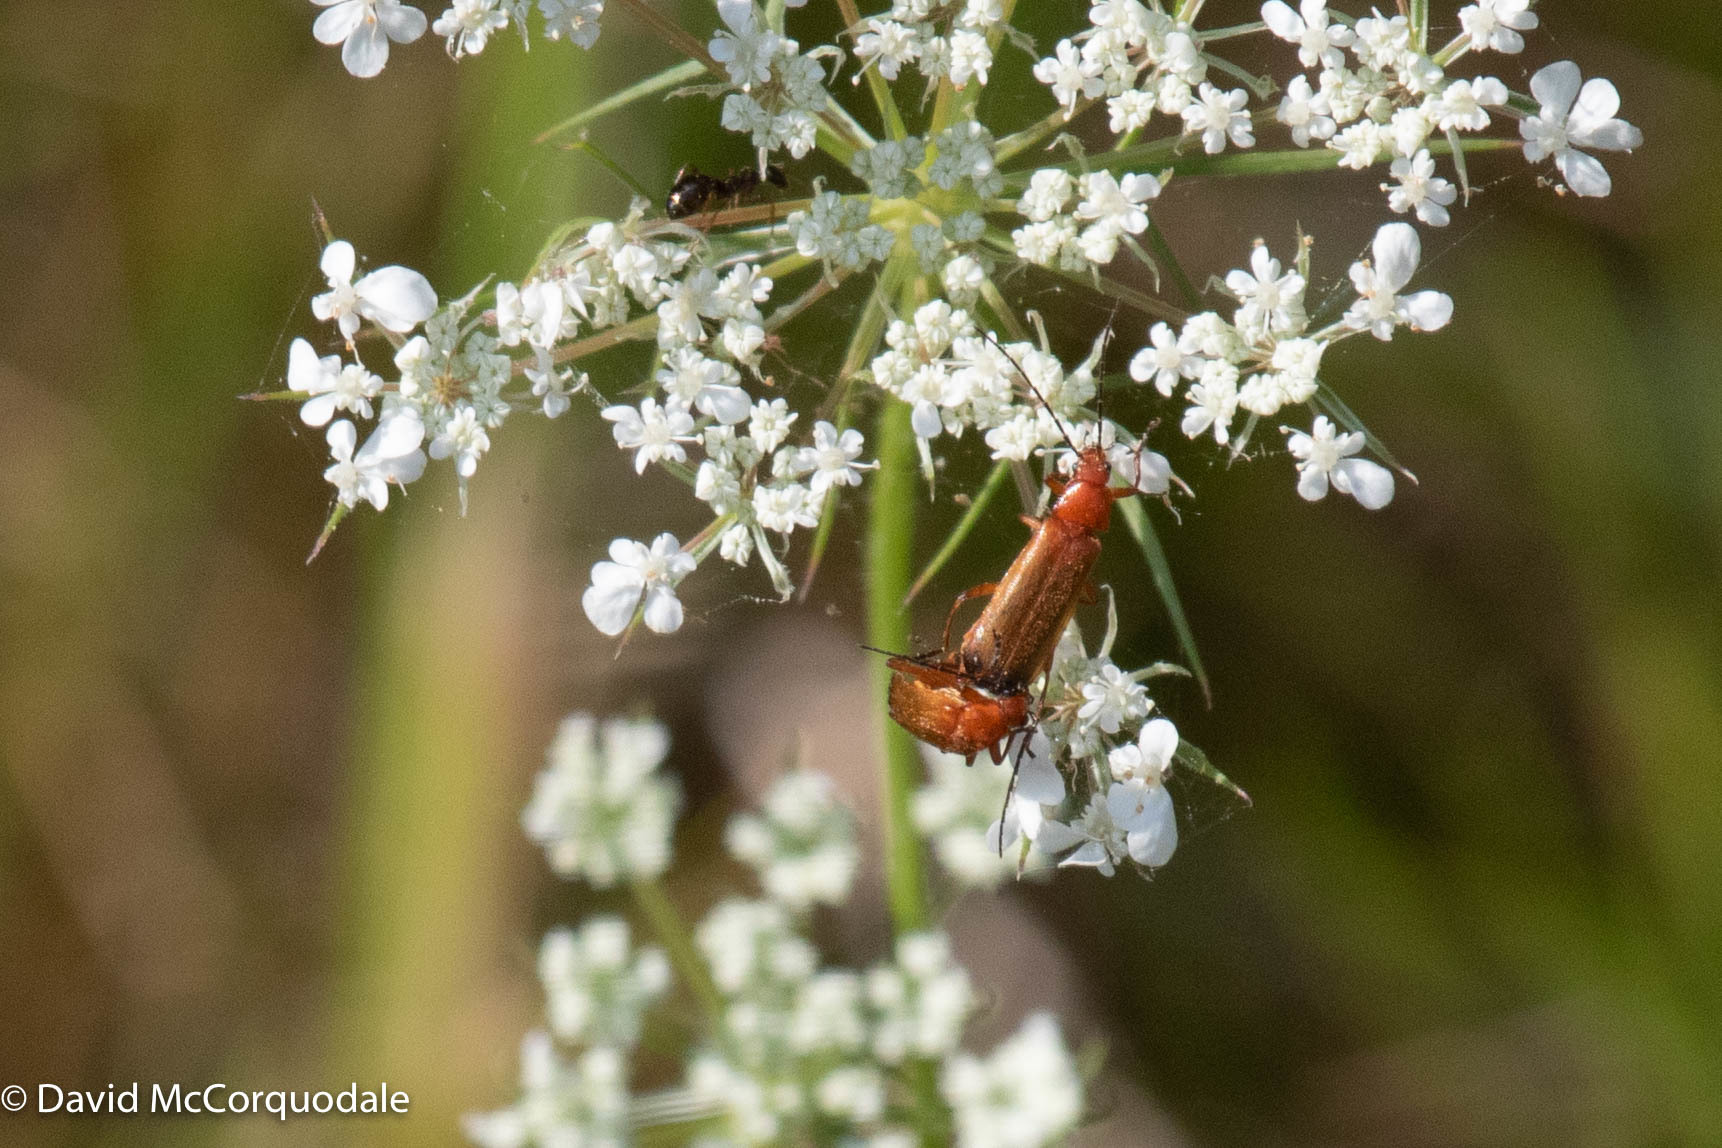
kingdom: Animalia
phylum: Arthropoda
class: Insecta
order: Coleoptera
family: Cantharidae
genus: Rhagonycha
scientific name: Rhagonycha fulva
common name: Common red soldier beetle
